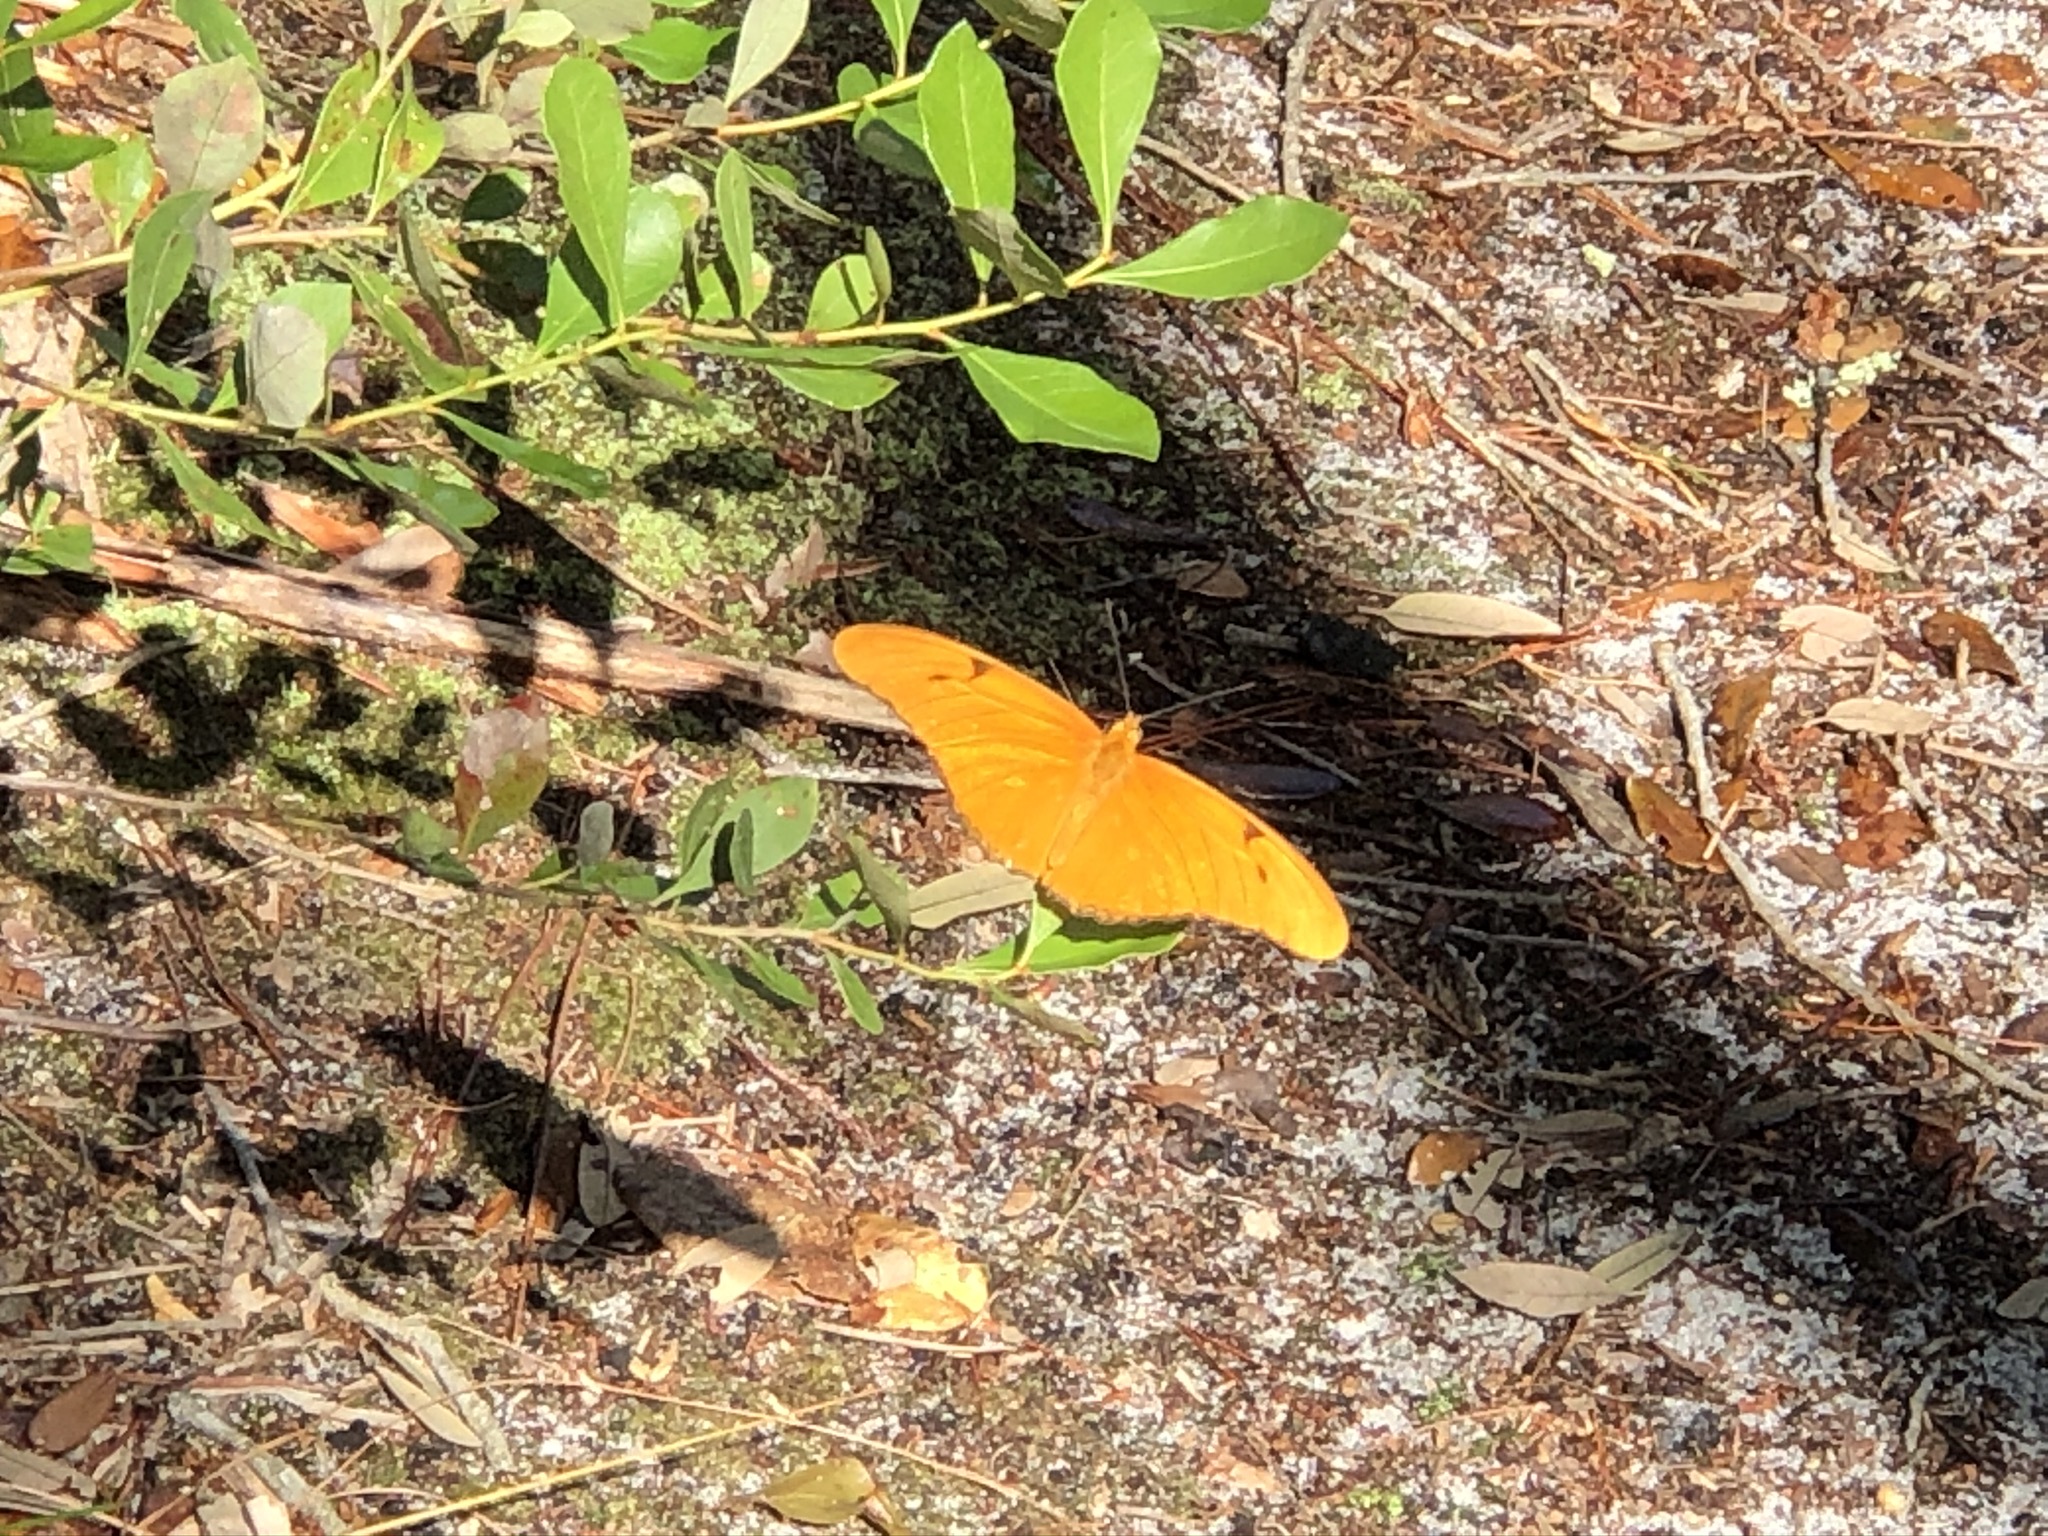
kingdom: Animalia
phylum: Arthropoda
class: Insecta
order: Lepidoptera
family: Nymphalidae
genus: Dryas
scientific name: Dryas iulia
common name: Flambeau
